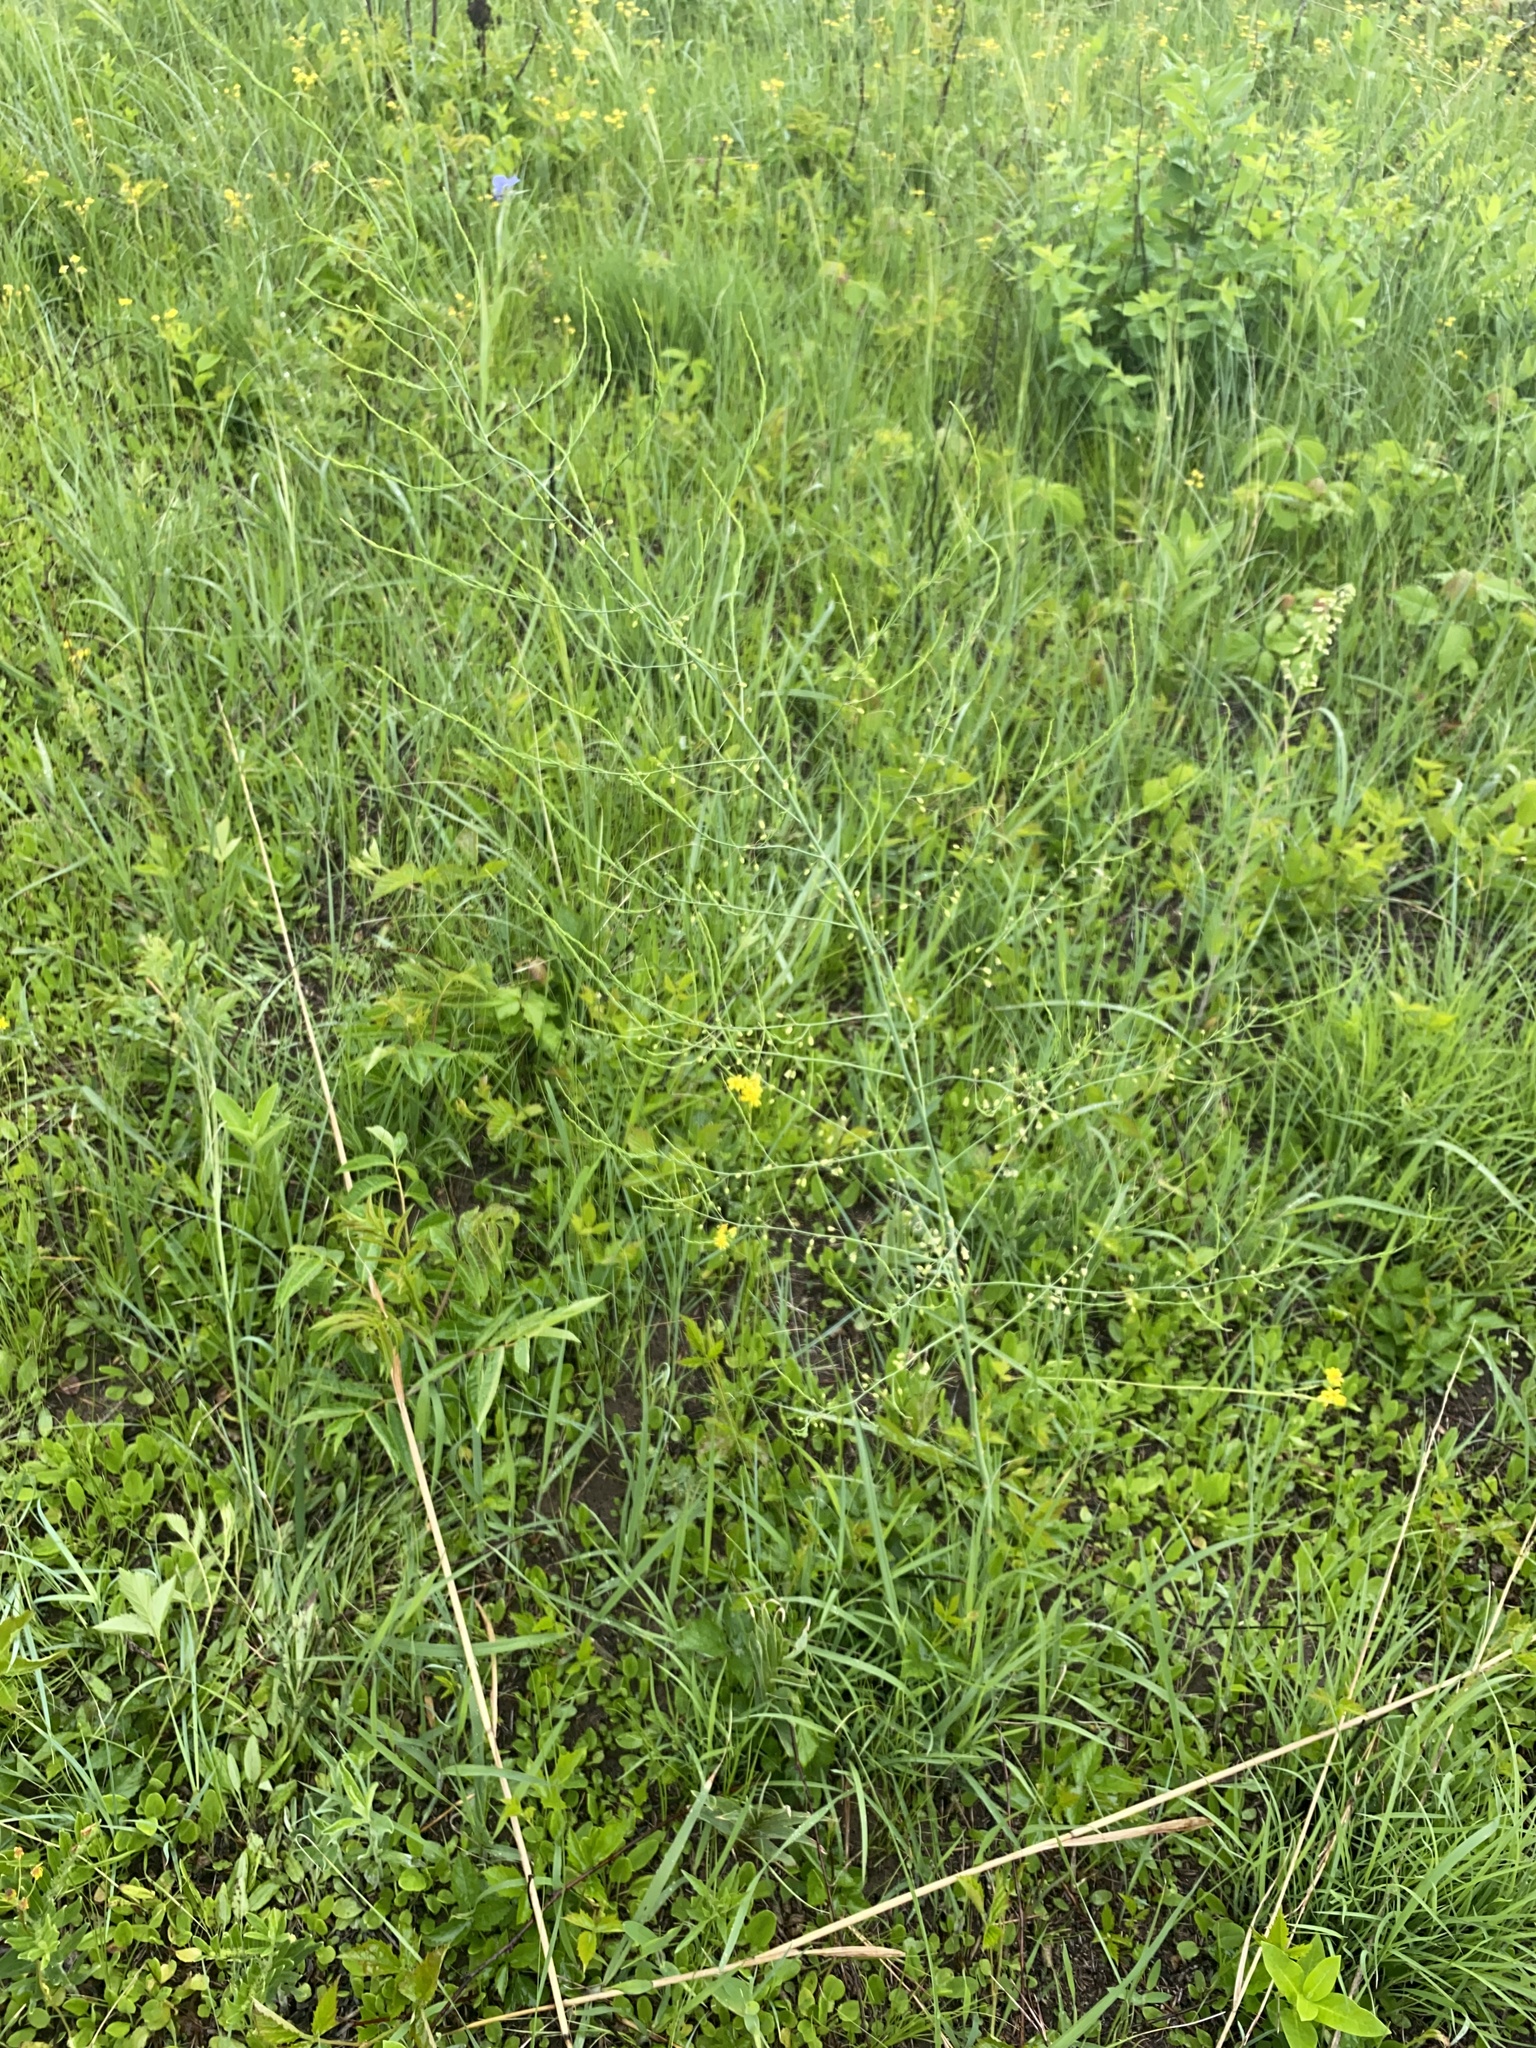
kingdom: Plantae
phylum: Tracheophyta
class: Liliopsida
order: Asparagales
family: Asparagaceae
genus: Asparagus
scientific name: Asparagus officinalis
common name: Garden asparagus
